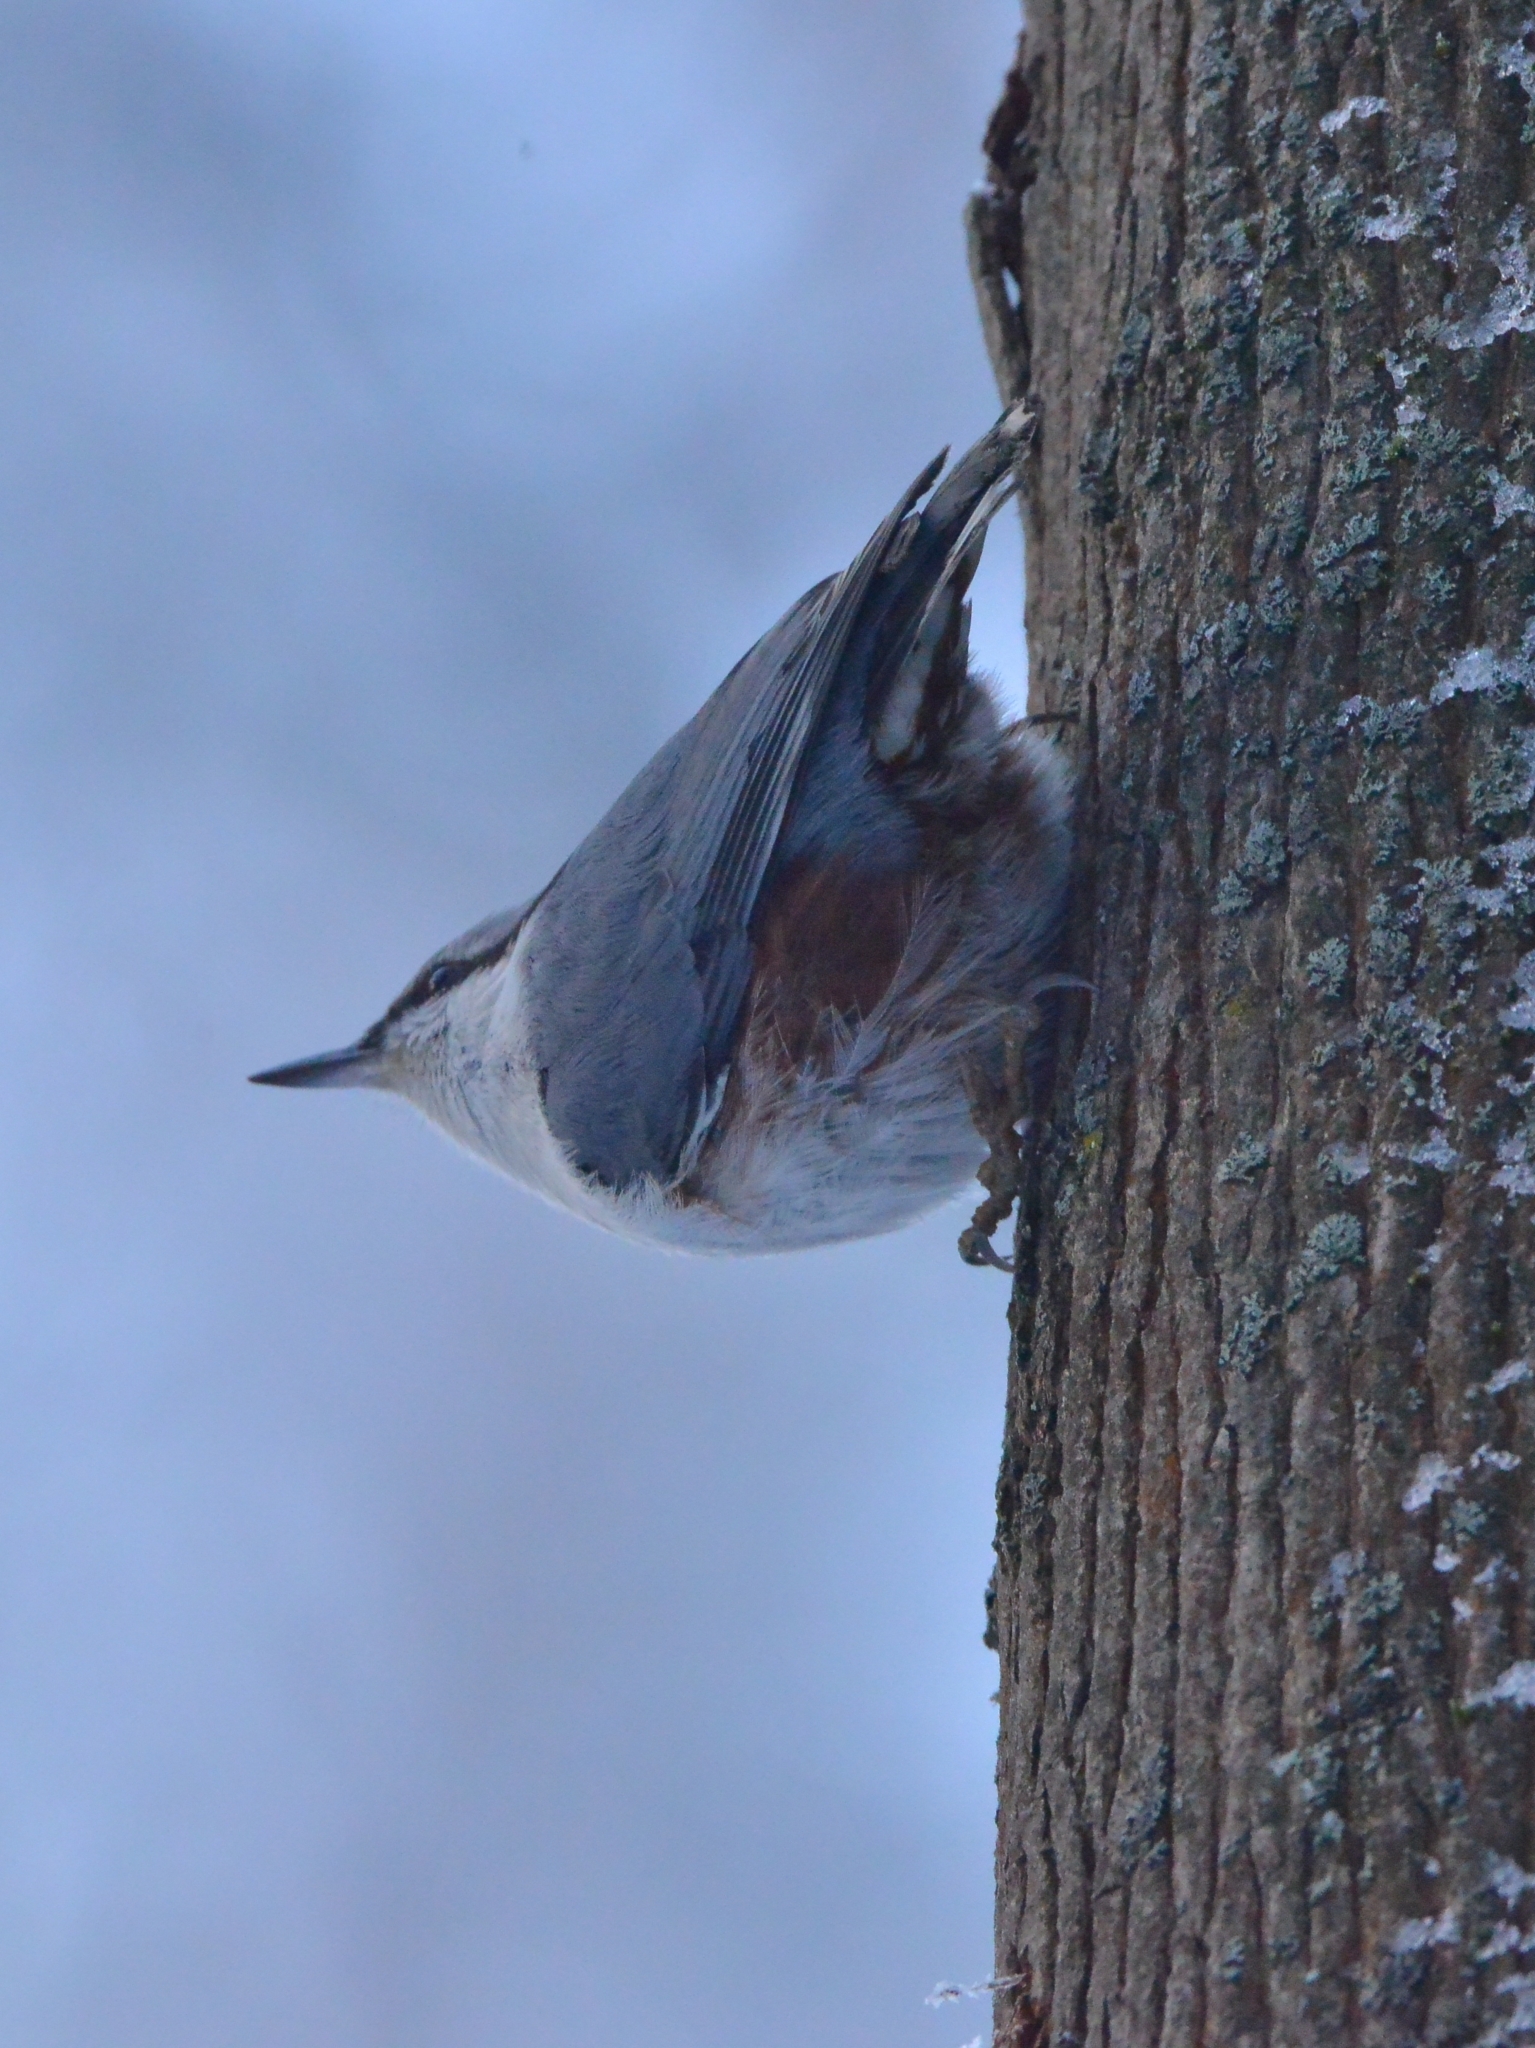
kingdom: Animalia
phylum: Chordata
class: Aves
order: Passeriformes
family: Sittidae
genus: Sitta
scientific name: Sitta europaea
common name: Eurasian nuthatch
